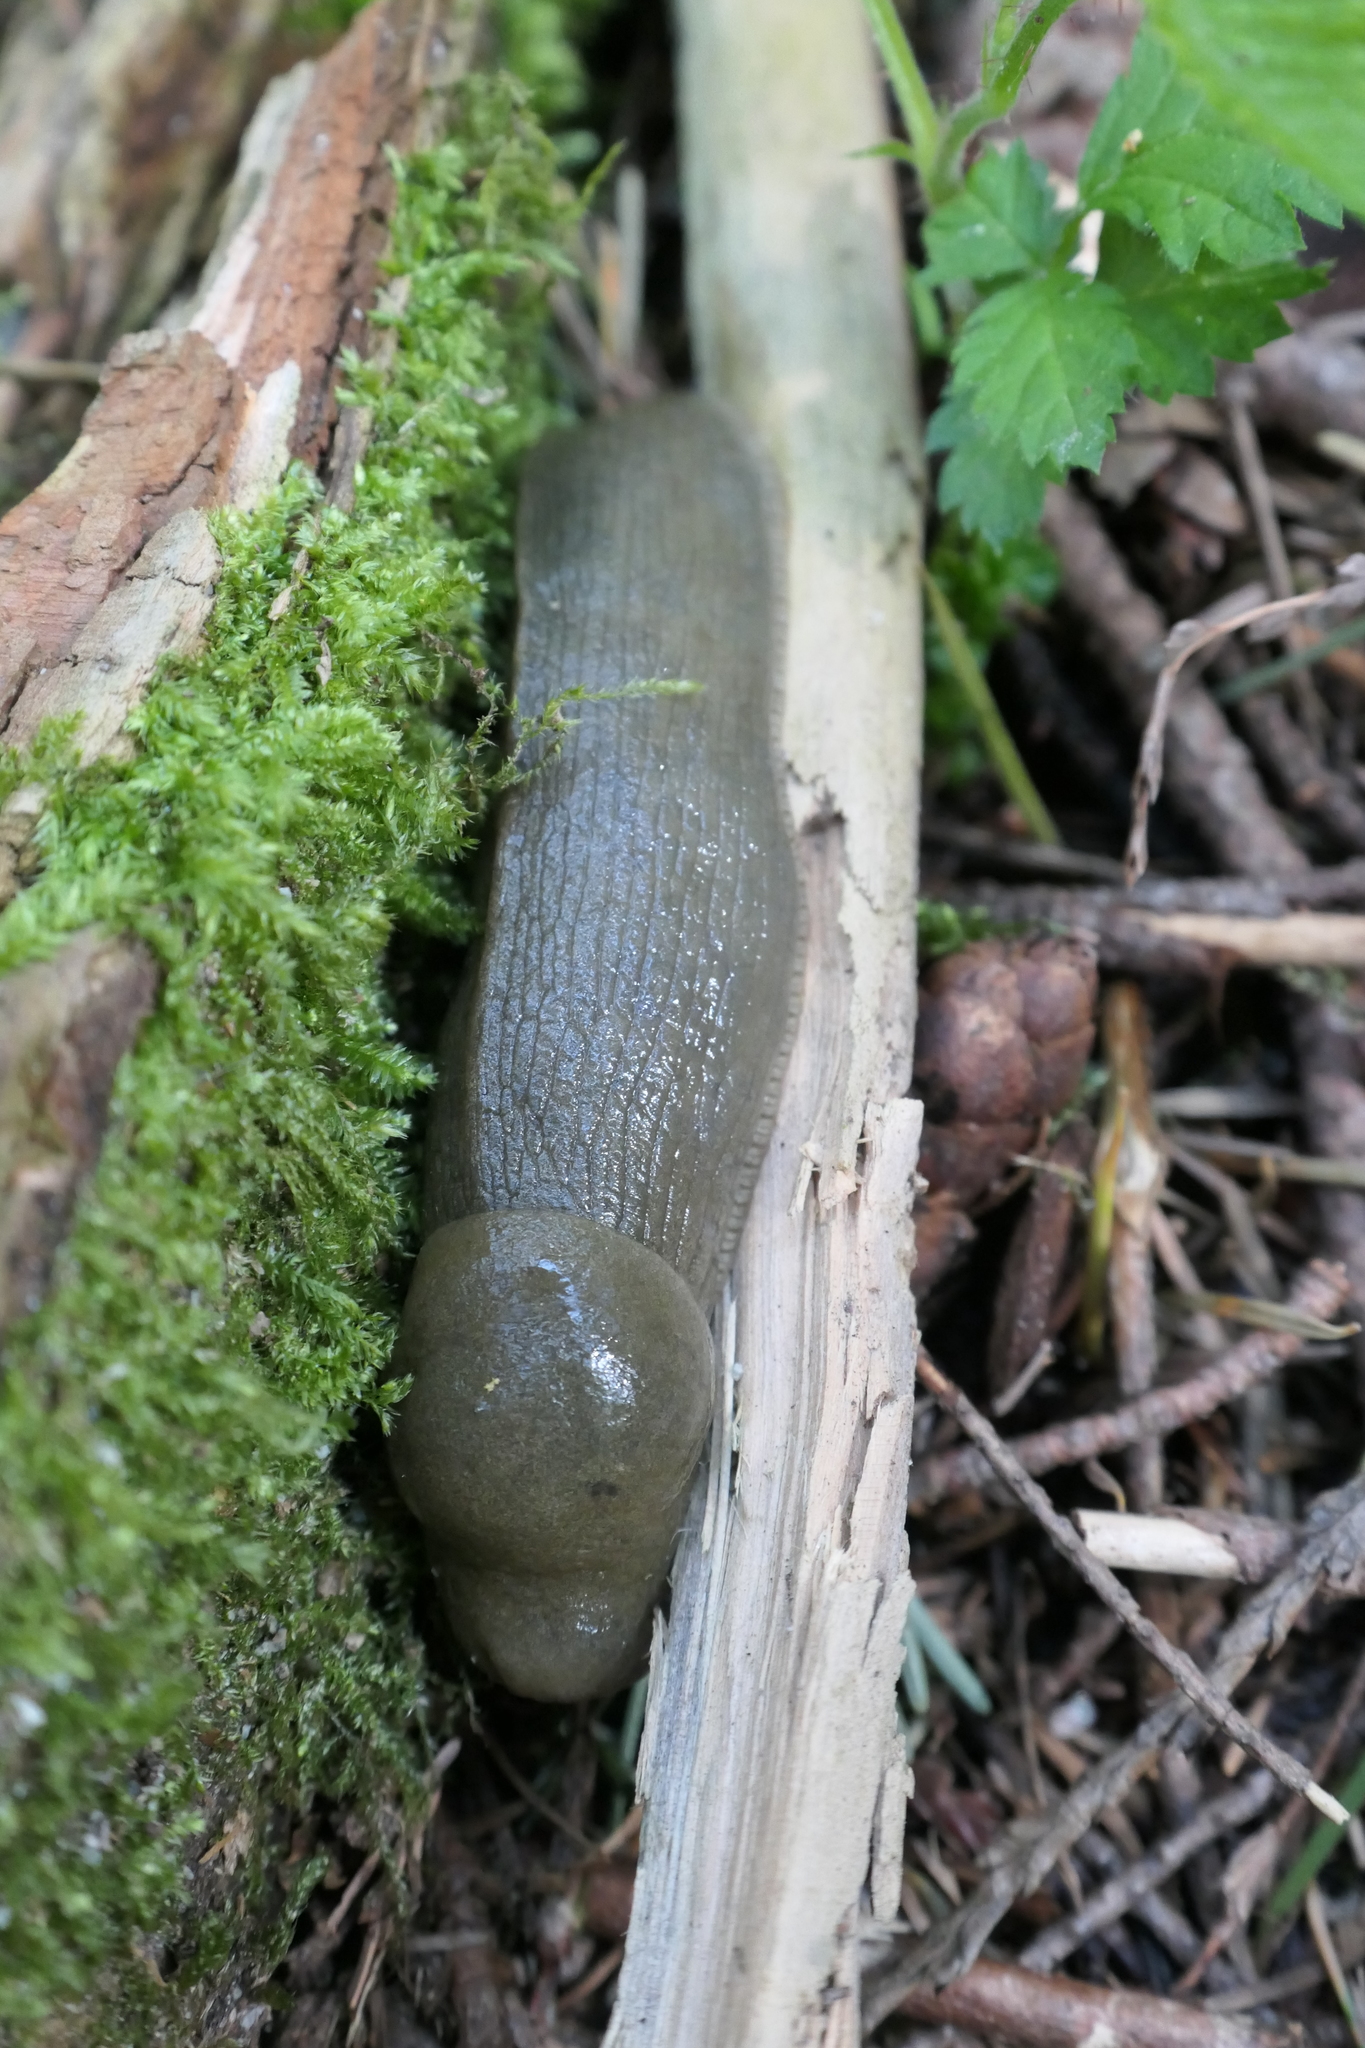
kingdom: Animalia
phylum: Mollusca
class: Gastropoda
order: Stylommatophora
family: Ariolimacidae
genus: Ariolimax
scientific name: Ariolimax columbianus
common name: Pacific banana slug
